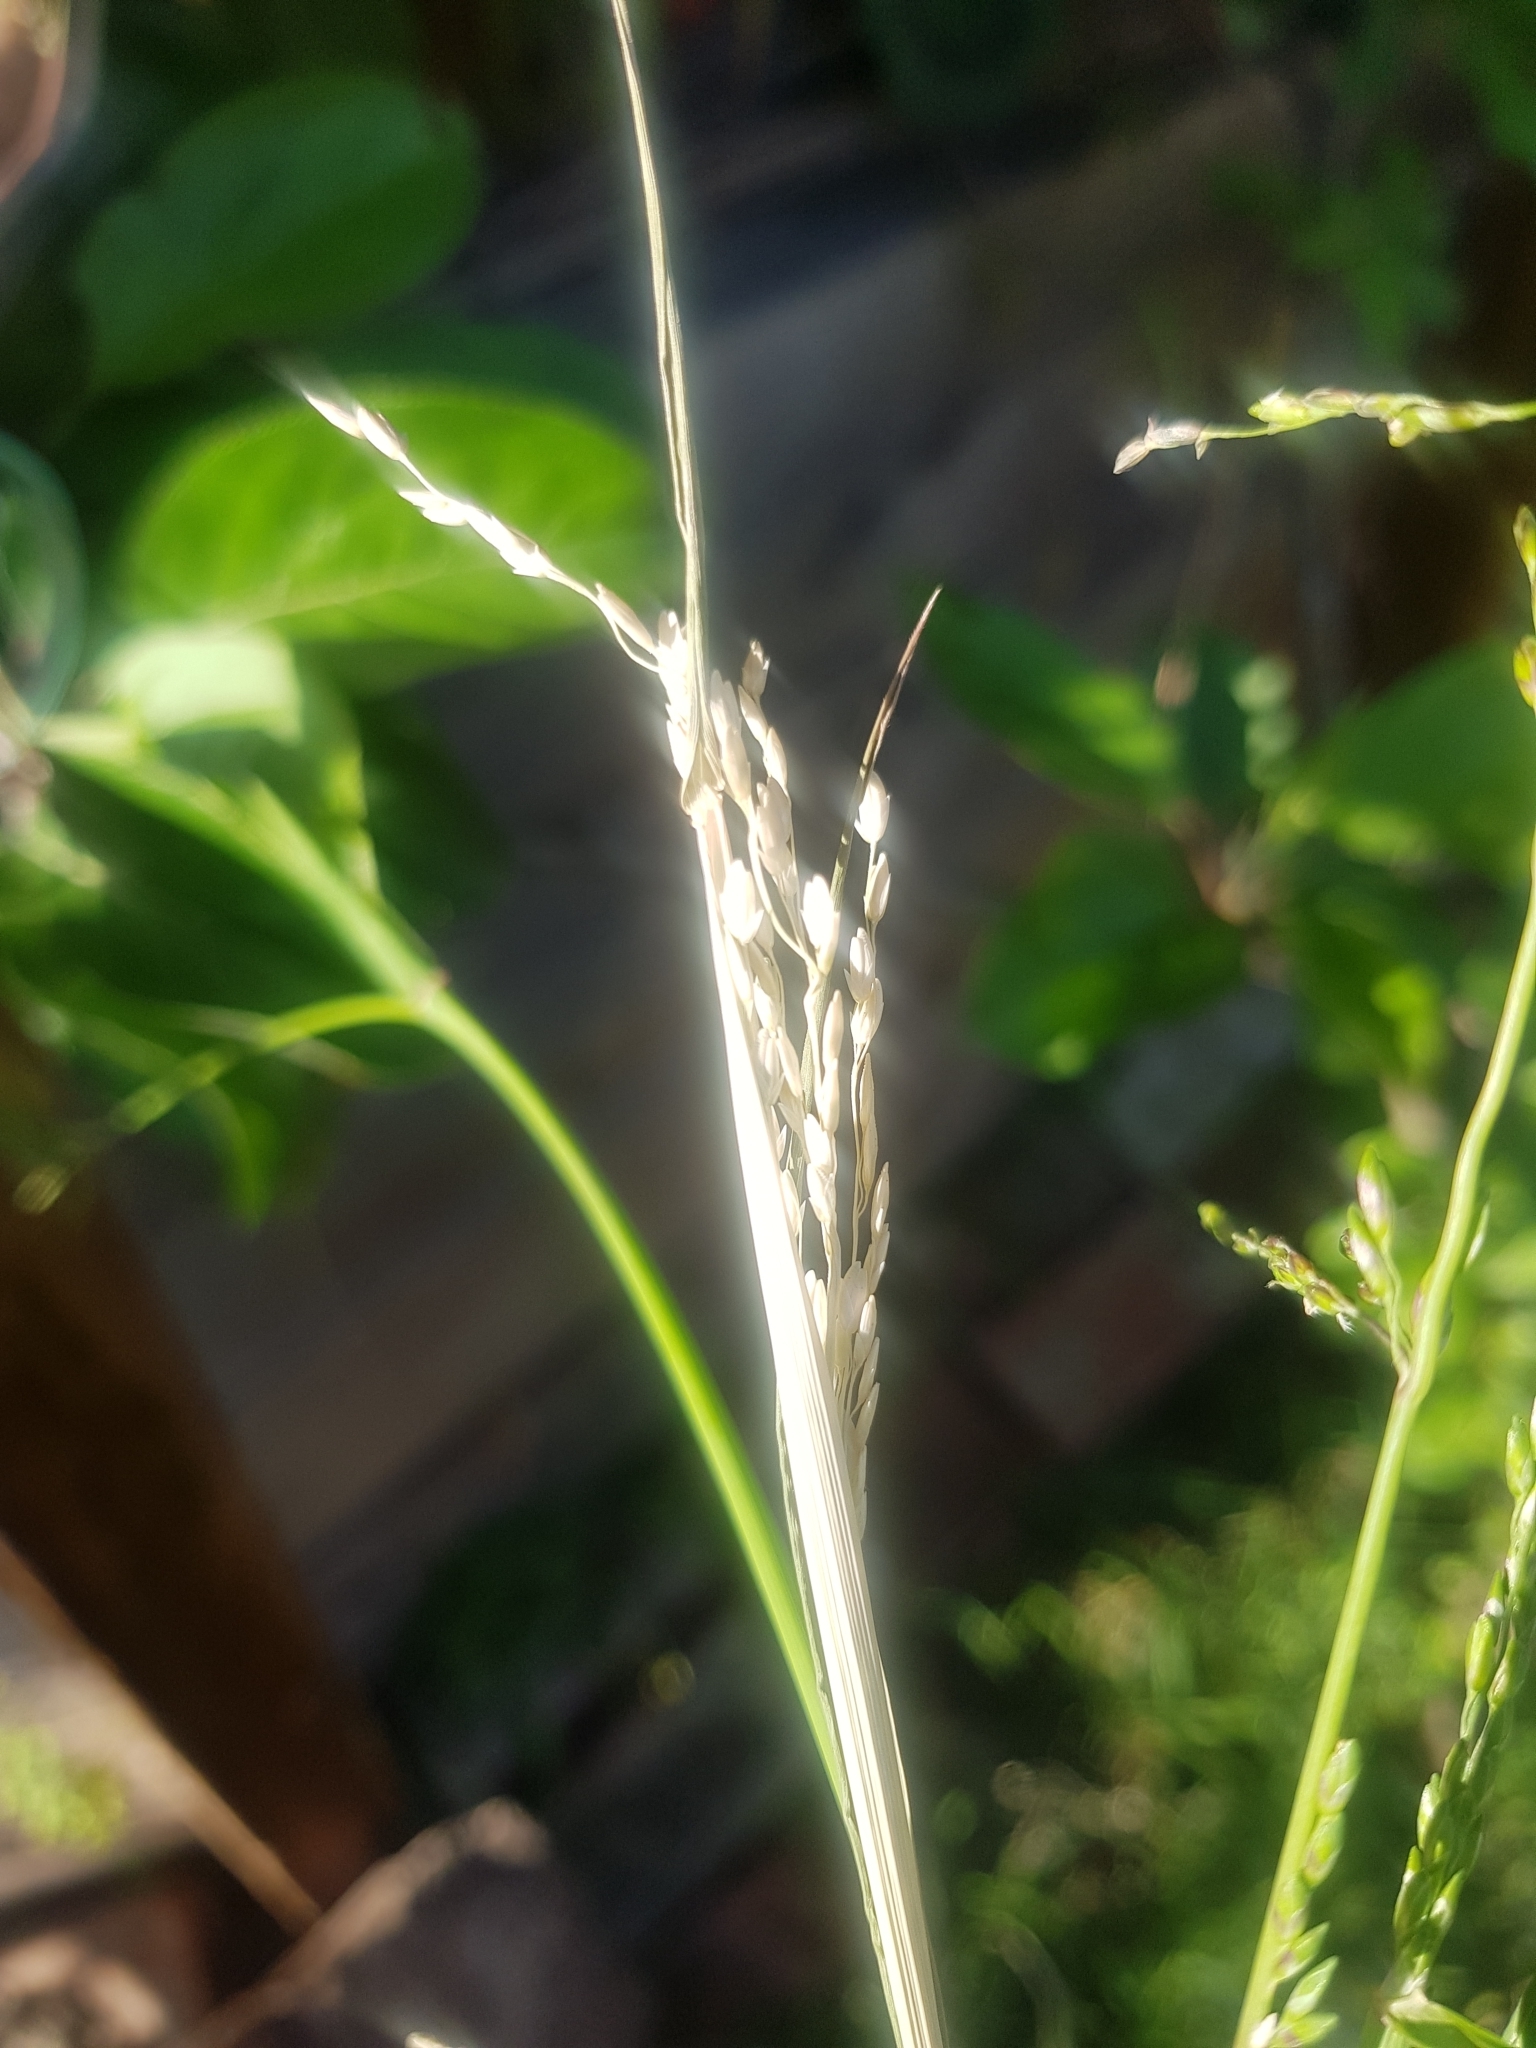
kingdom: Plantae
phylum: Tracheophyta
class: Liliopsida
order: Poales
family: Poaceae
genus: Ehrharta
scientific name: Ehrharta erecta
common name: Panic veldtgrass
